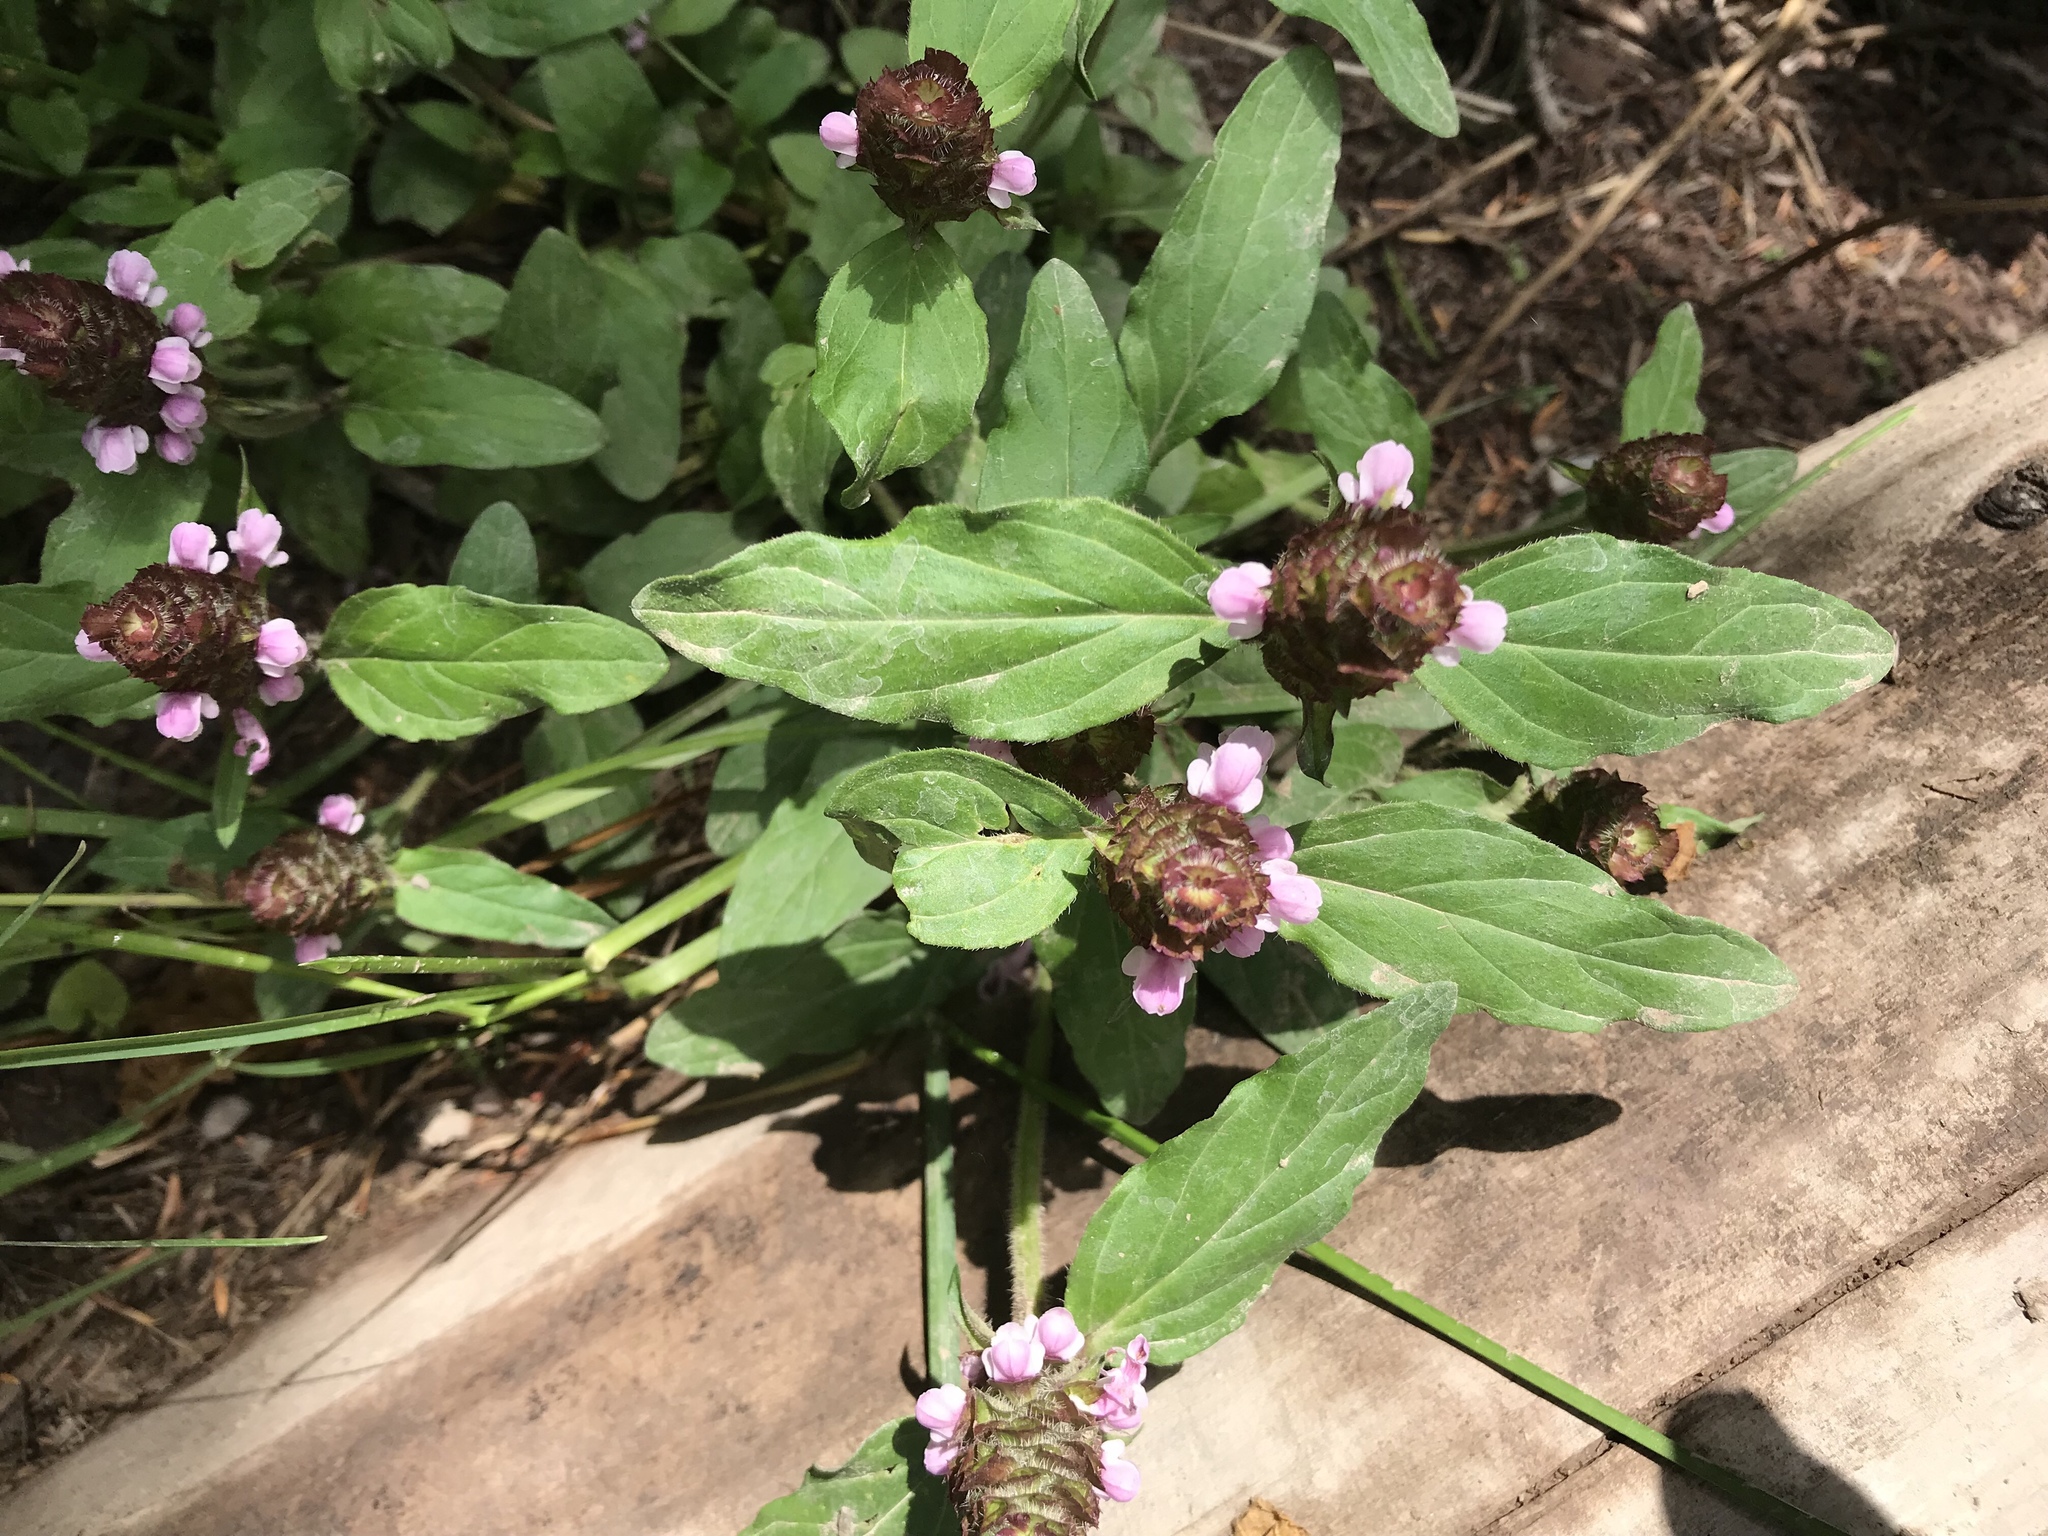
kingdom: Plantae
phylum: Tracheophyta
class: Magnoliopsida
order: Lamiales
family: Lamiaceae
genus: Prunella
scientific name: Prunella vulgaris
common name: Heal-all
